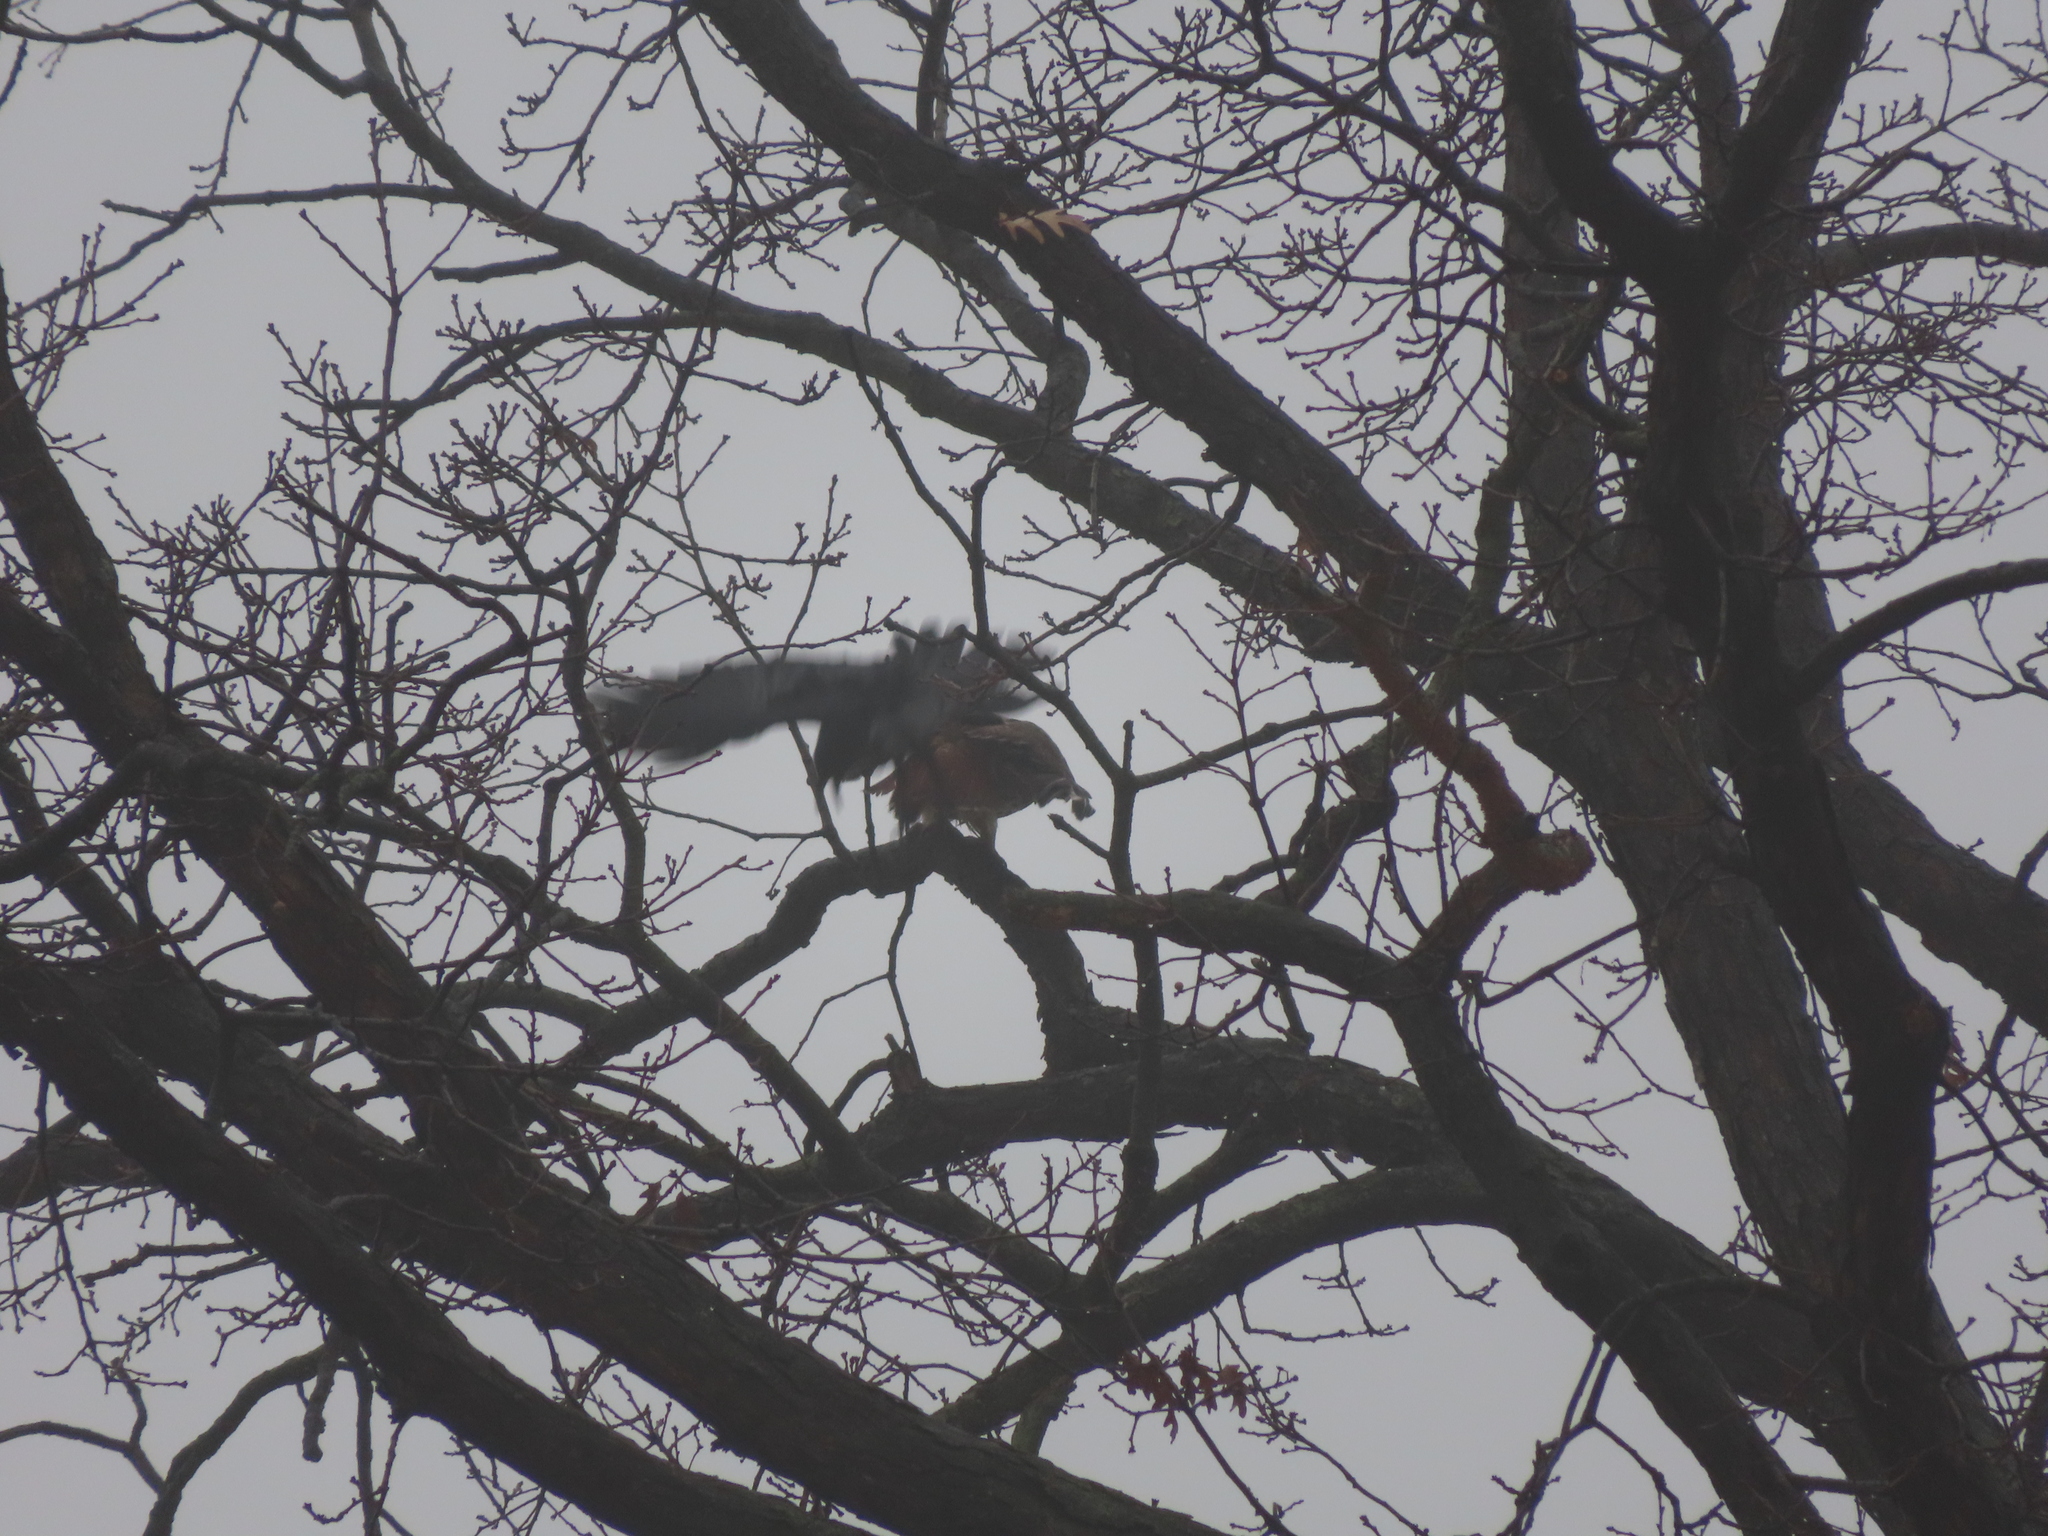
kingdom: Animalia
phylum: Chordata
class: Aves
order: Accipitriformes
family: Accipitridae
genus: Buteo
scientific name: Buteo jamaicensis
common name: Red-tailed hawk
